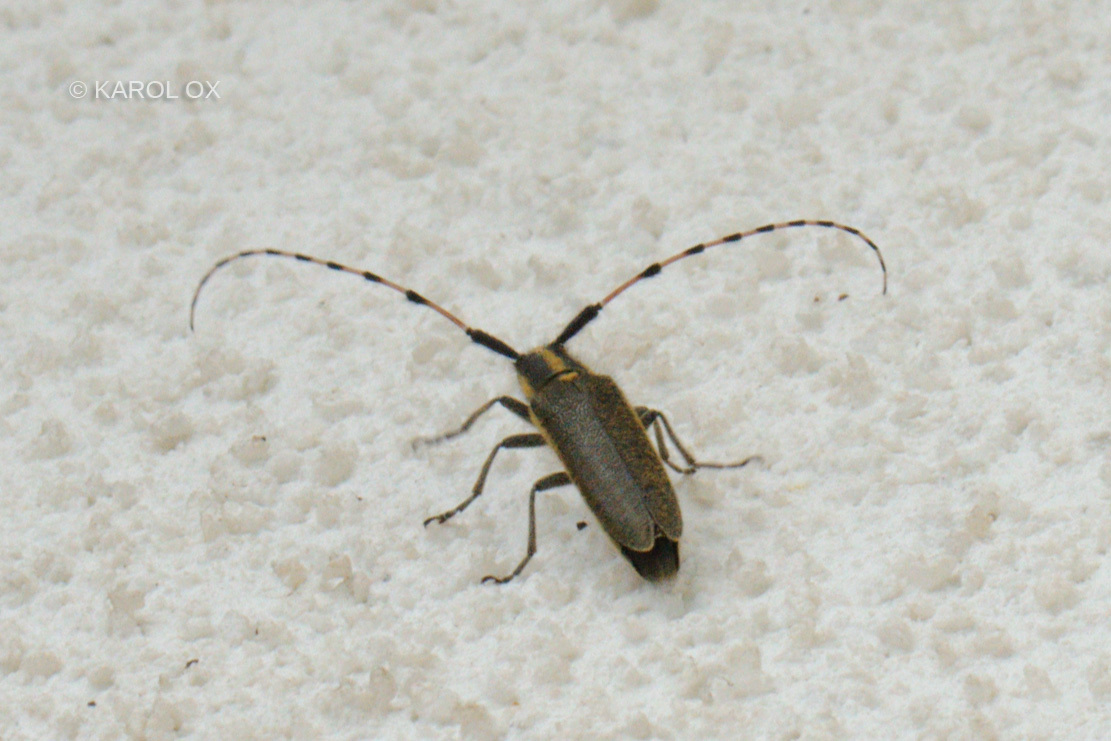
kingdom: Animalia
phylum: Arthropoda
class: Insecta
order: Coleoptera
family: Cerambycidae
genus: Agapanthia
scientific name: Agapanthia dahlii
